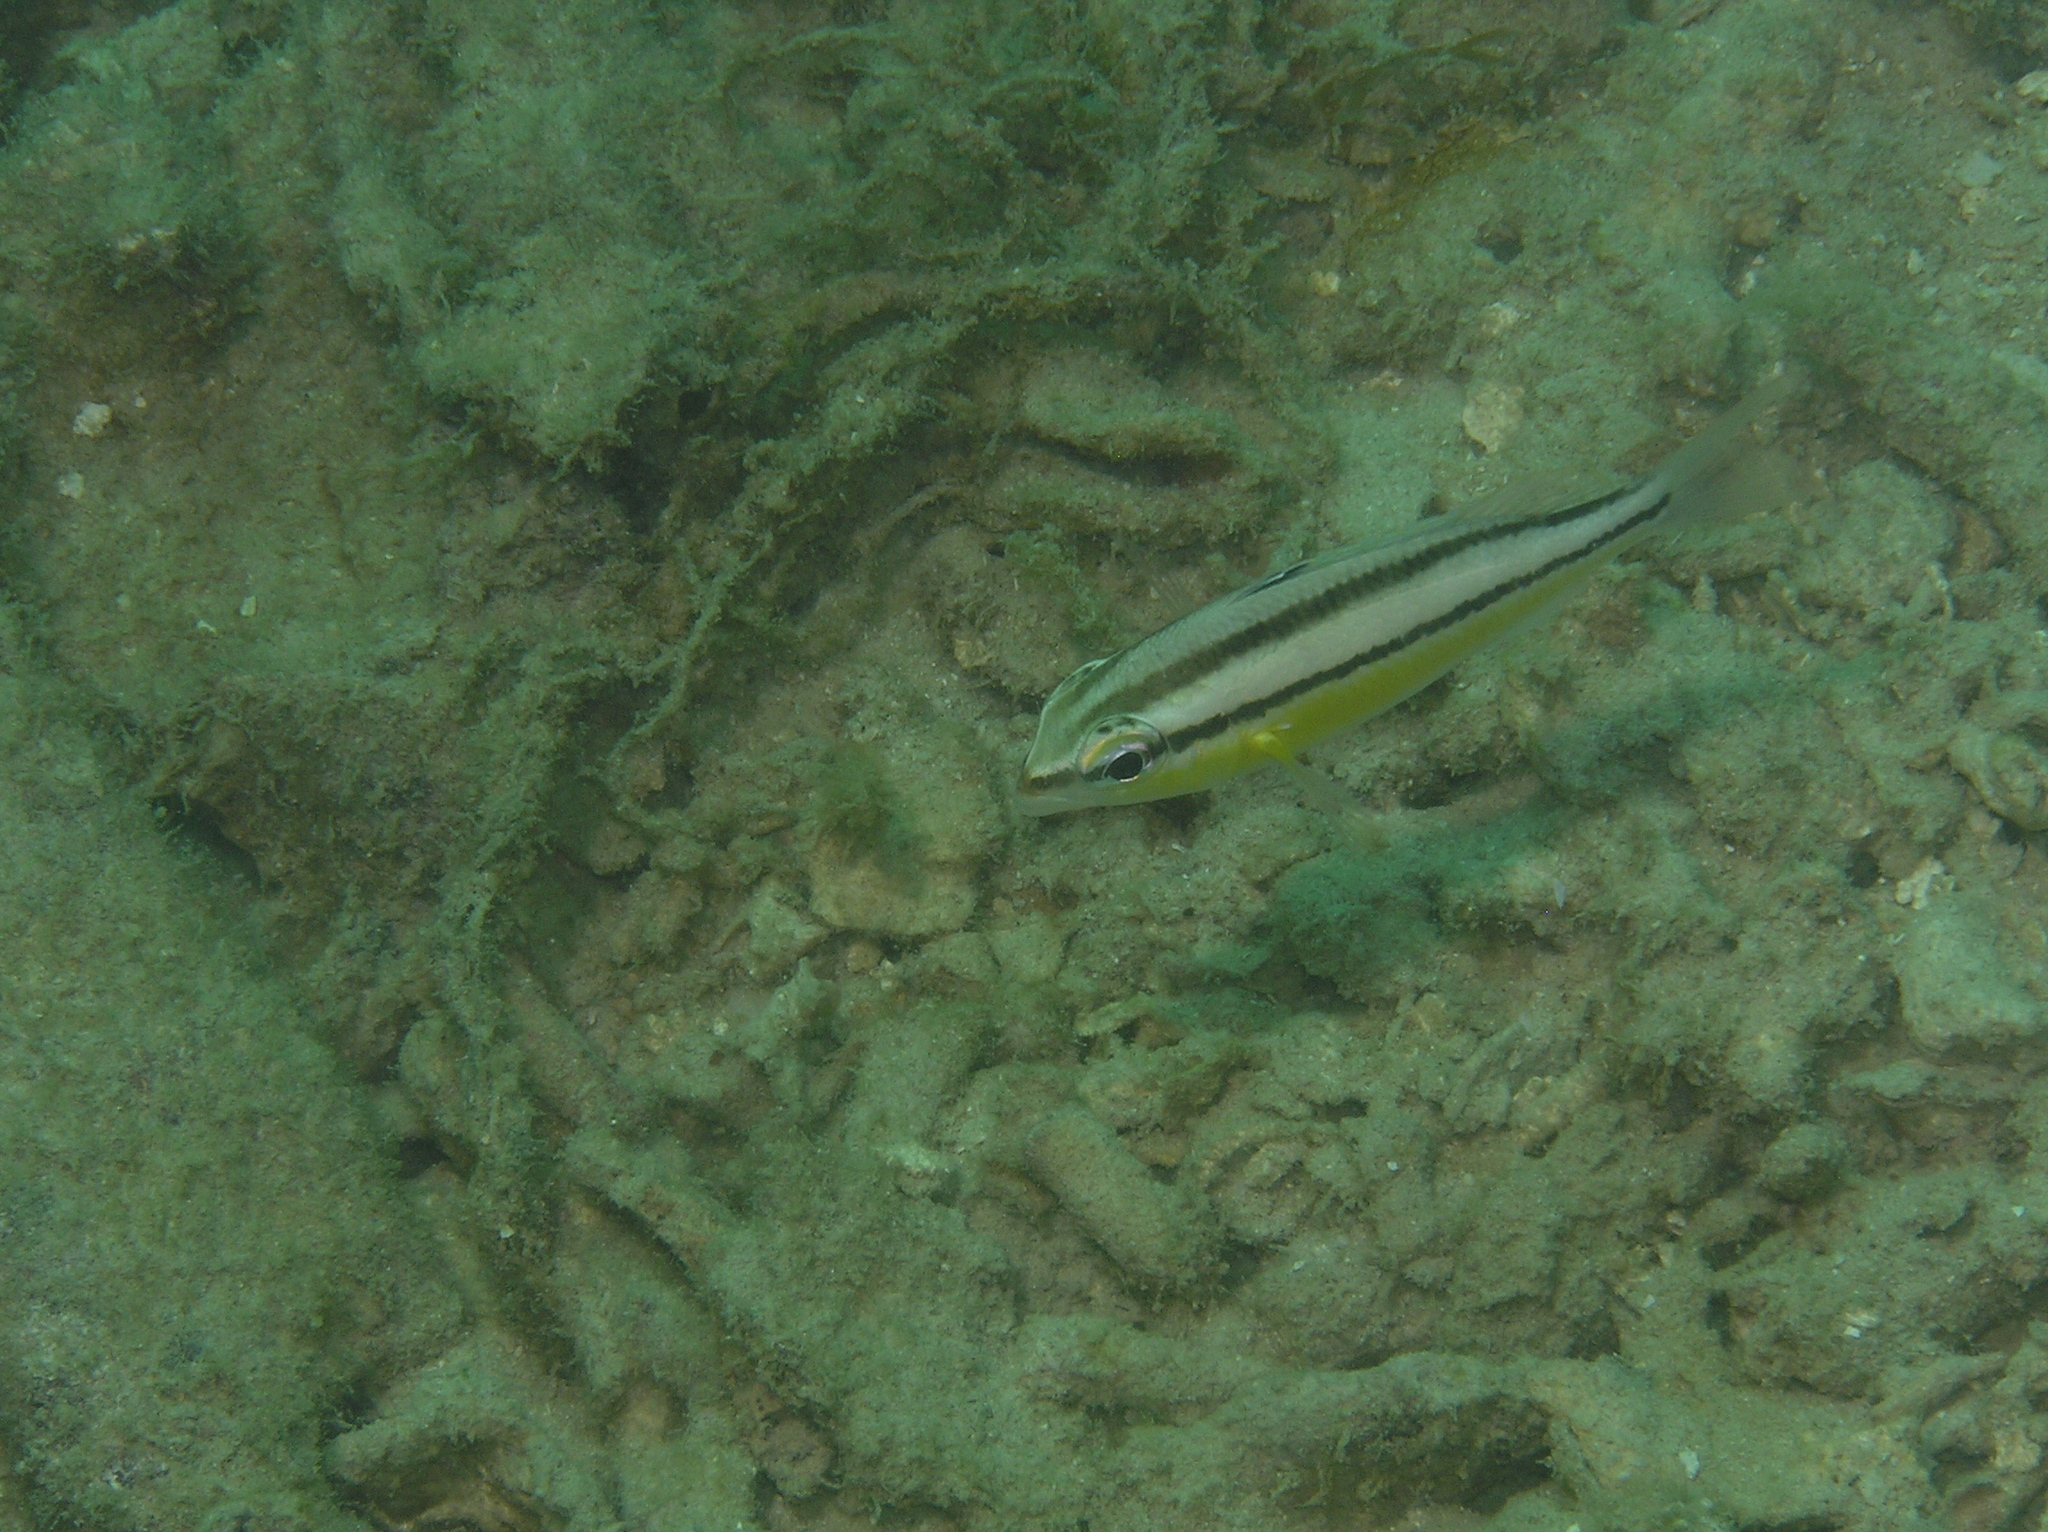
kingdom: Animalia
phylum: Chordata
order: Perciformes
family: Nemipteridae
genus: Scolopsis
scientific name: Scolopsis margaritifera
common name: Pearly monocle bream
